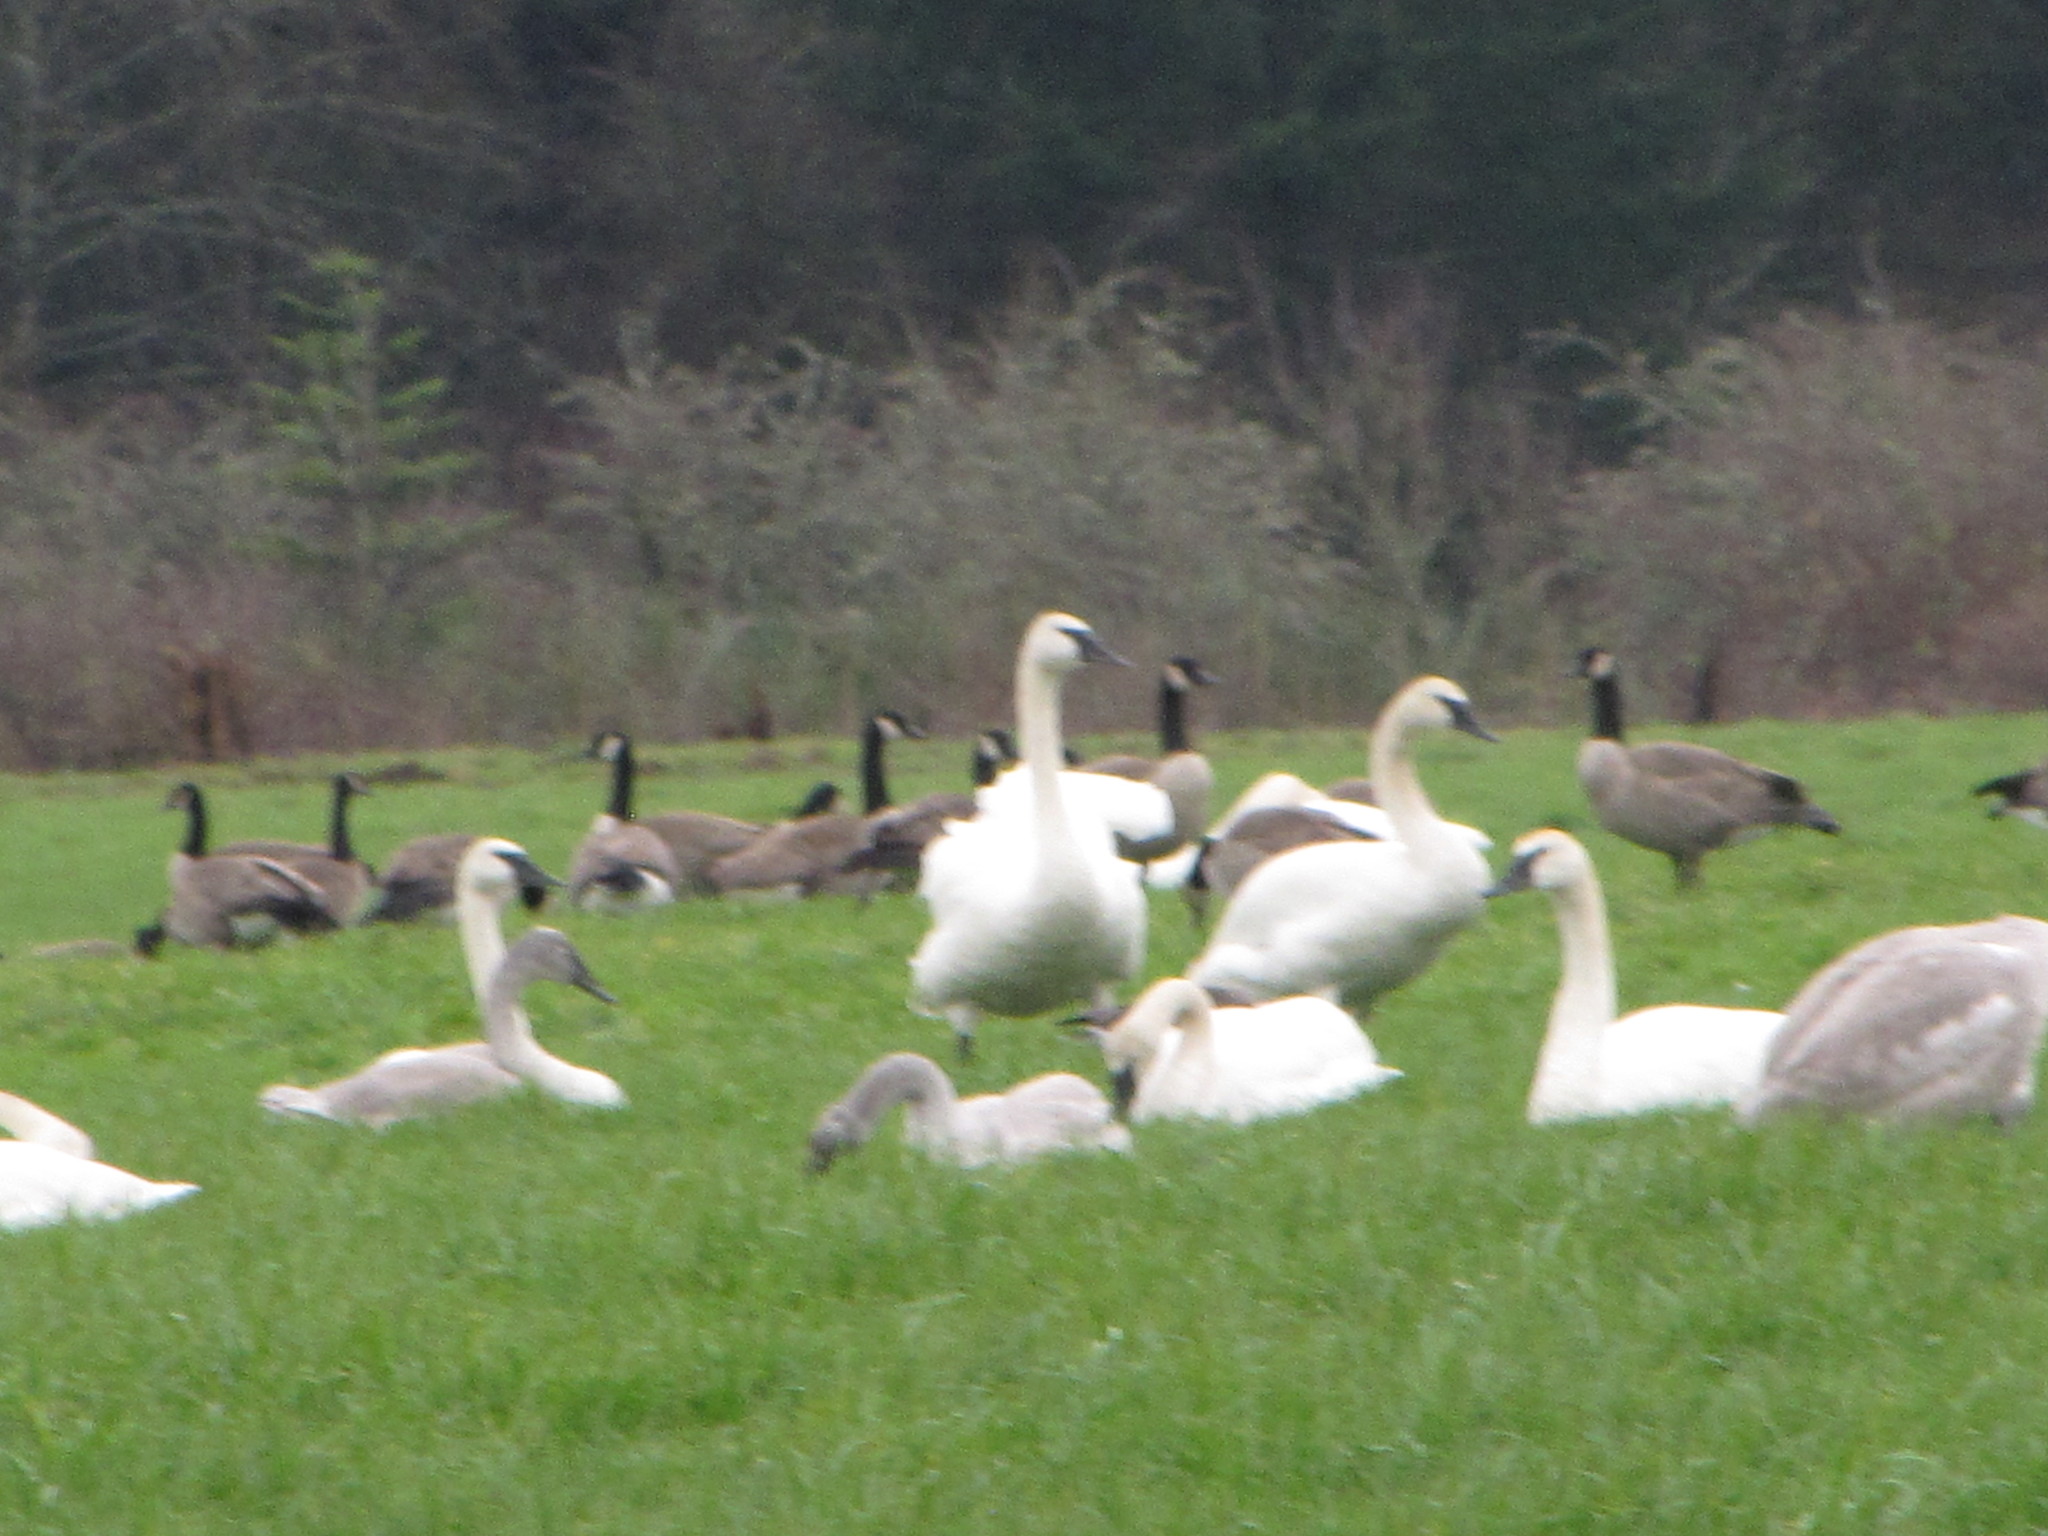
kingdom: Animalia
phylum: Chordata
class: Aves
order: Anseriformes
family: Anatidae
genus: Cygnus
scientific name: Cygnus buccinator
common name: Trumpeter swan
